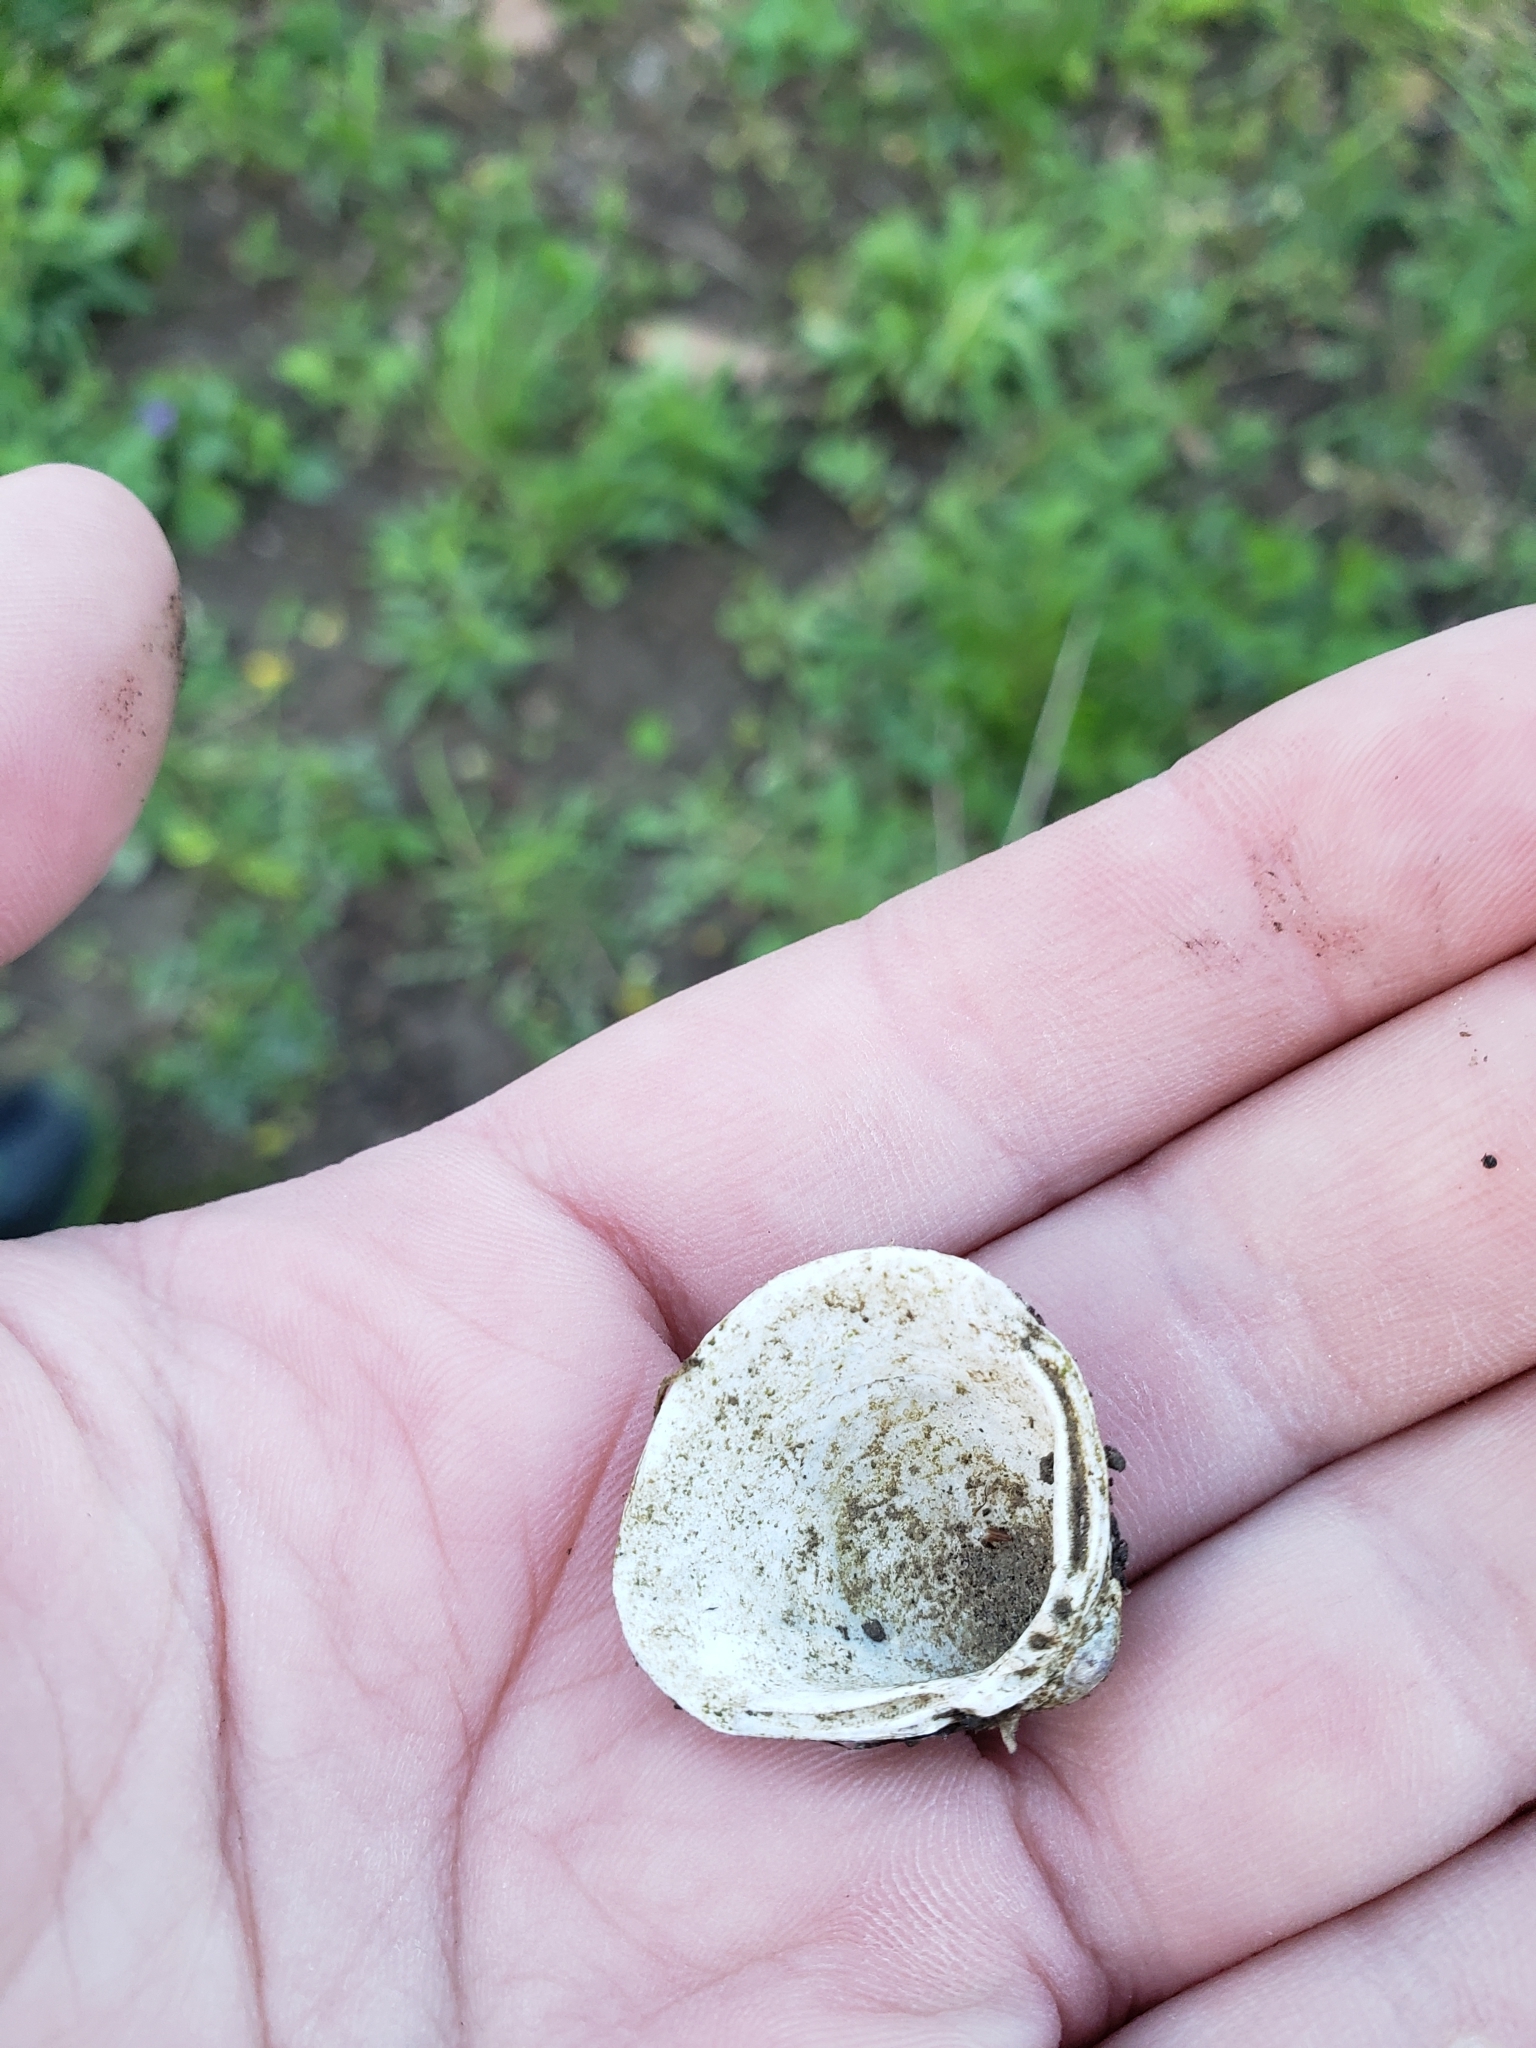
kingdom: Animalia
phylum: Mollusca
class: Bivalvia
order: Venerida
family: Cyrenidae
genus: Corbicula
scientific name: Corbicula fluminea
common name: Asian clam
